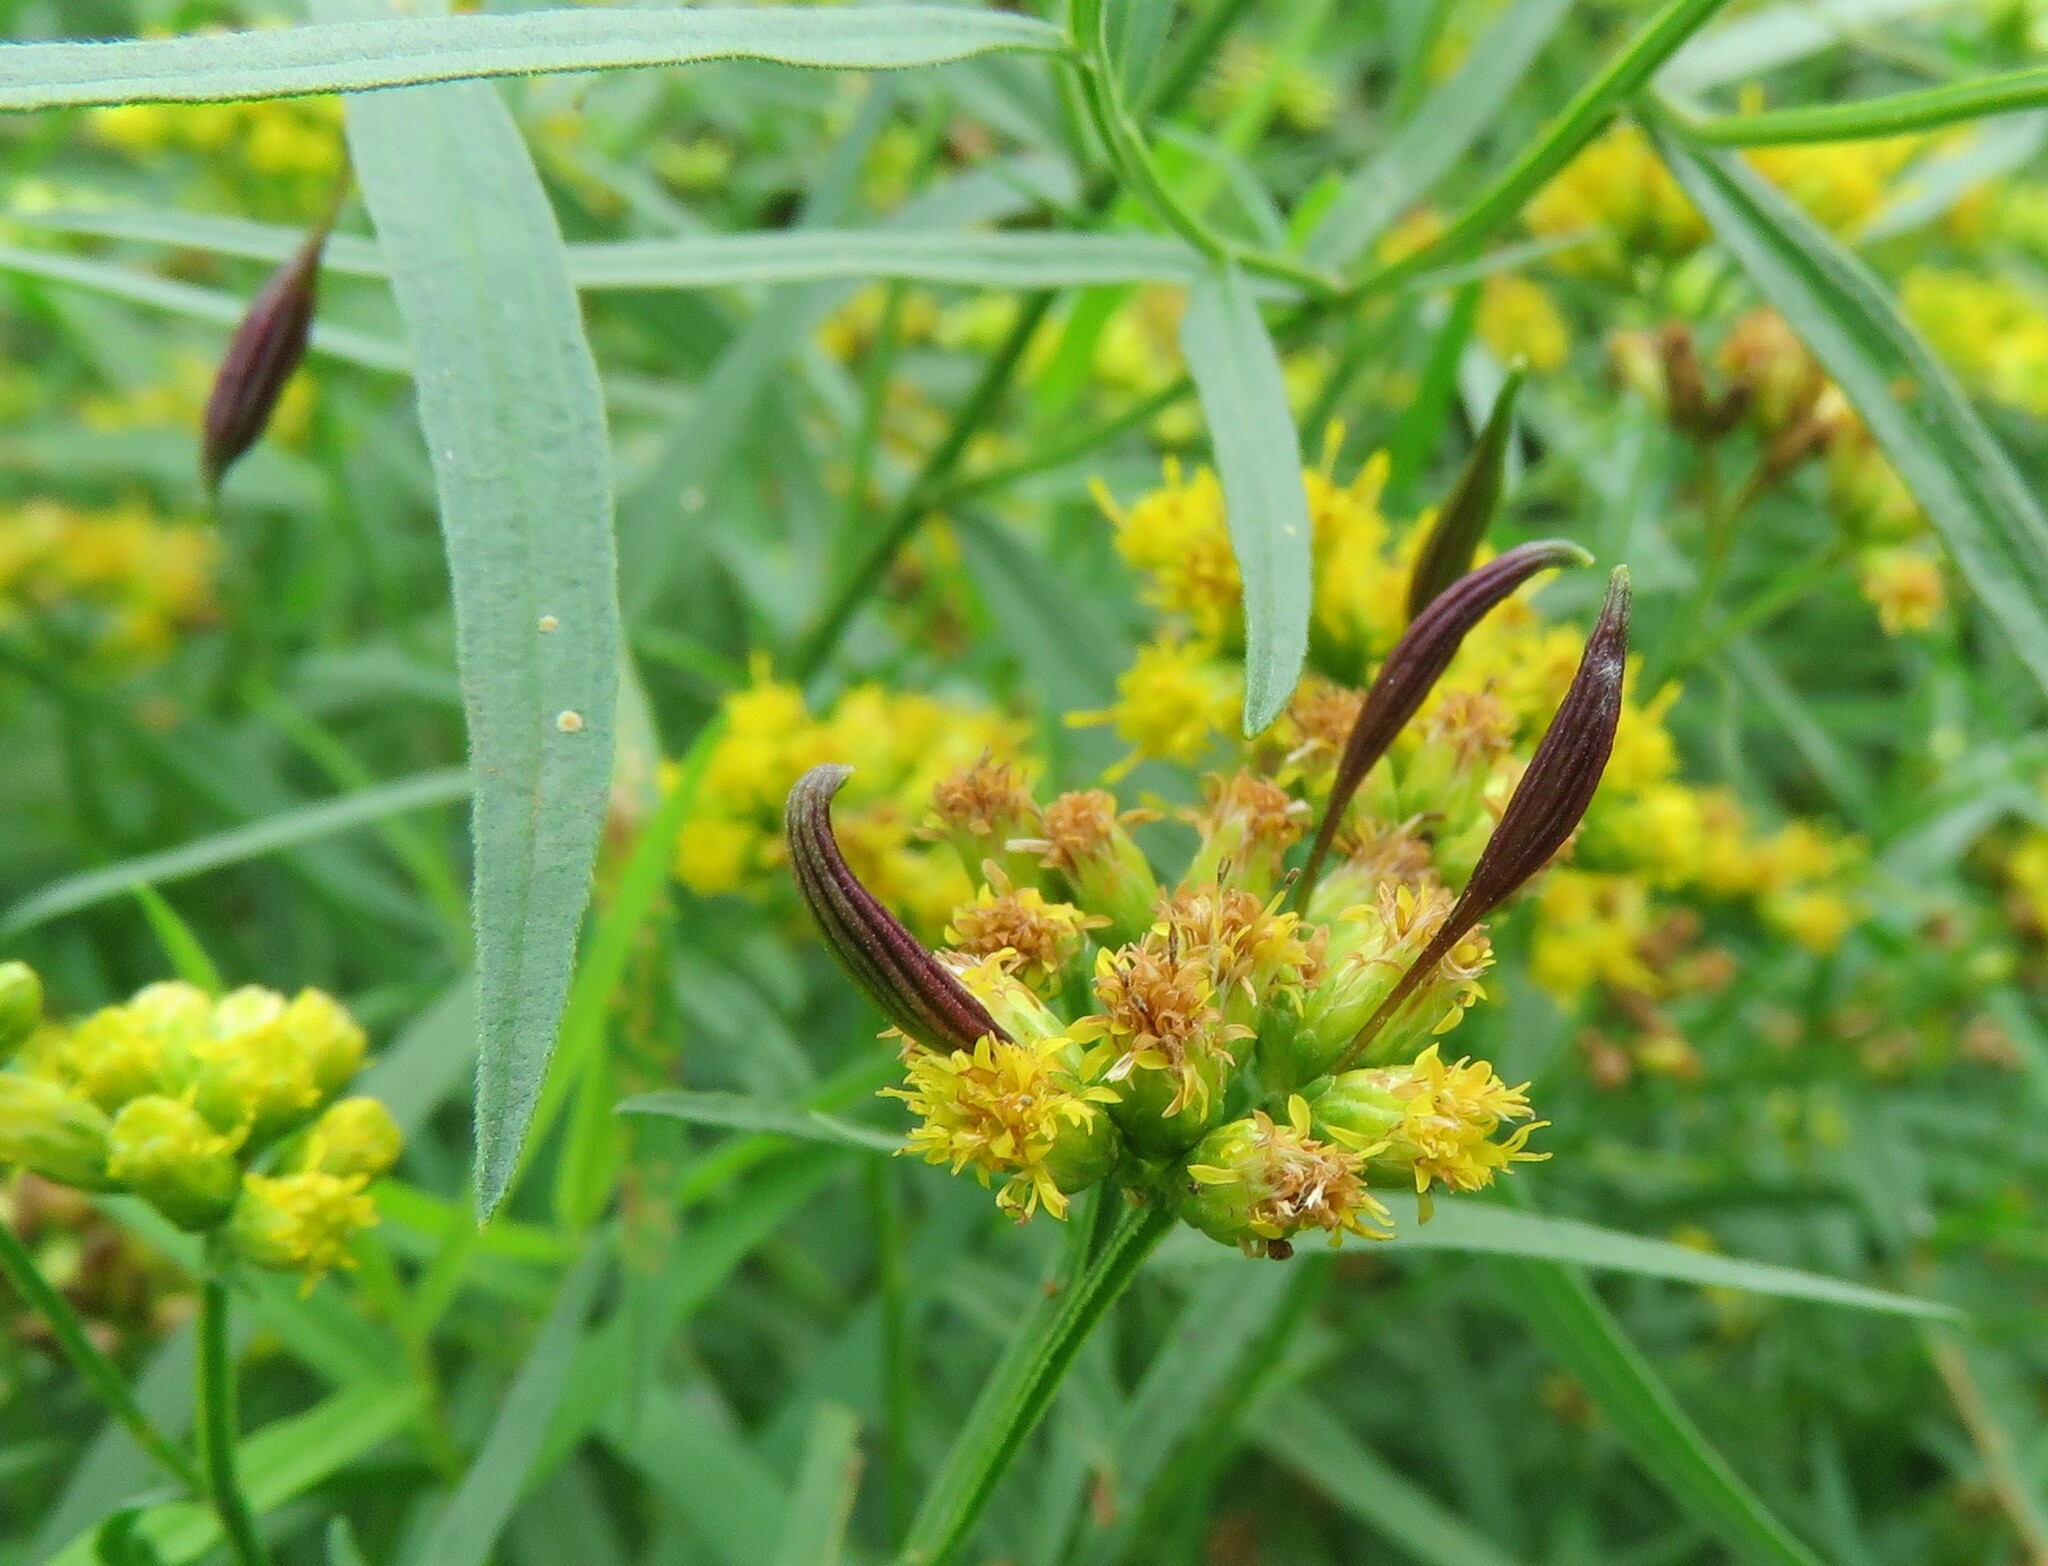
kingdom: Animalia
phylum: Arthropoda
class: Insecta
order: Diptera
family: Cecidomyiidae
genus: Rhopalomyia
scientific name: Rhopalomyia pedicellata
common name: Goldentop pedicellate gall midge
